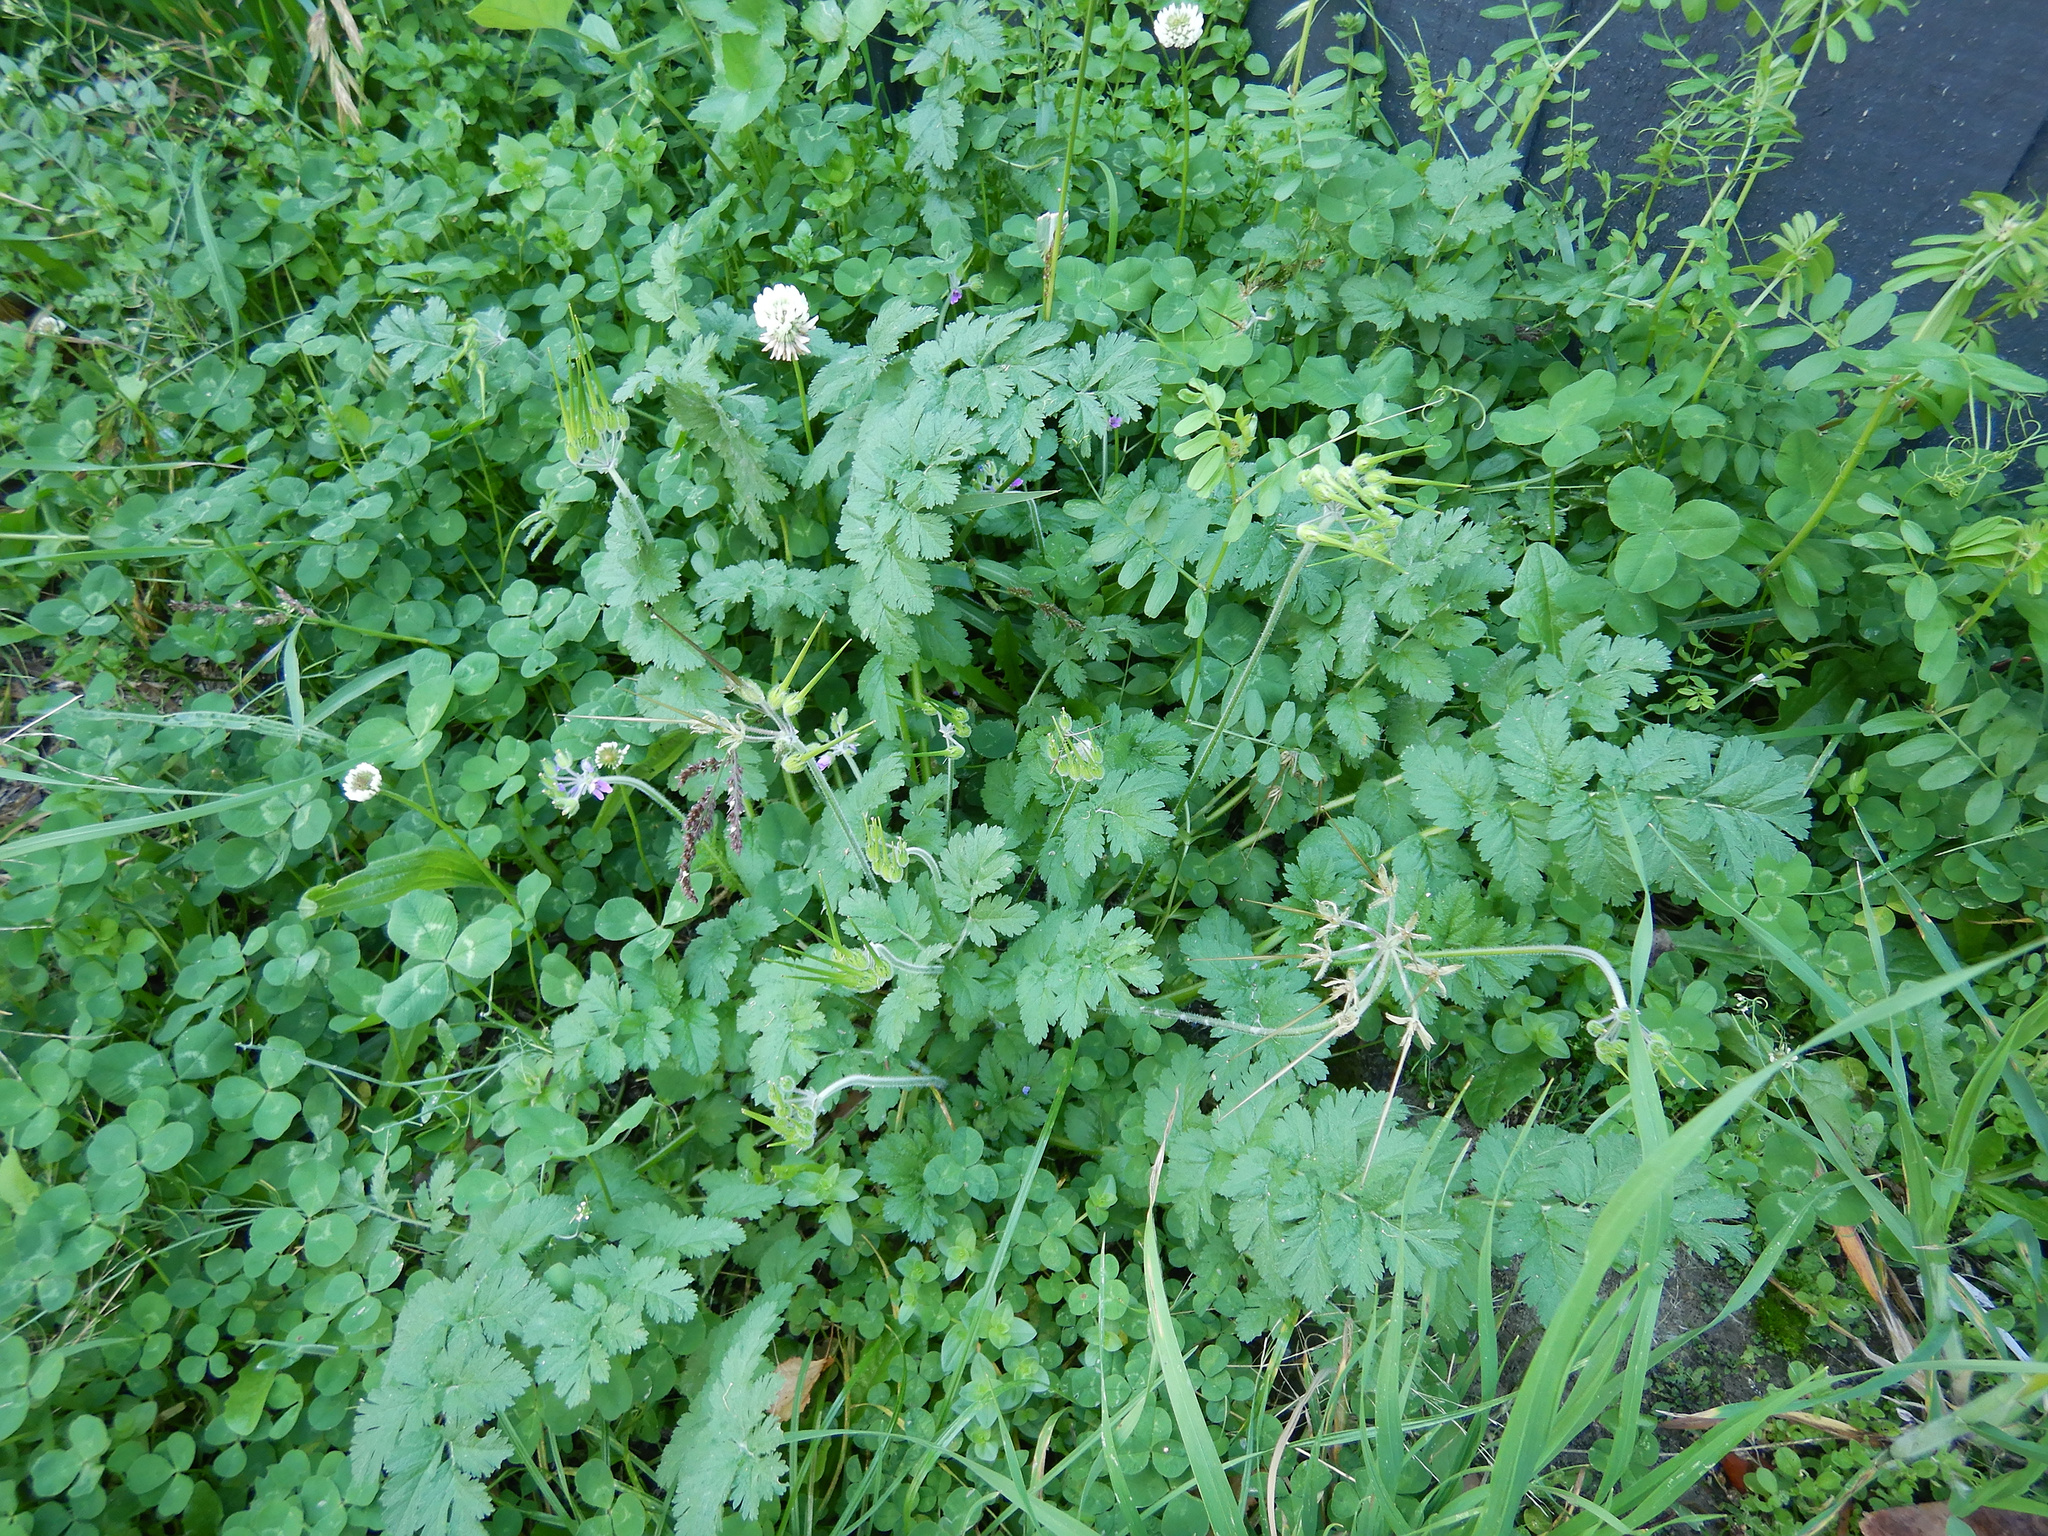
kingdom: Plantae
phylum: Tracheophyta
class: Magnoliopsida
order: Geraniales
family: Geraniaceae
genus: Erodium
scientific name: Erodium moschatum
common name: Musk stork's-bill
